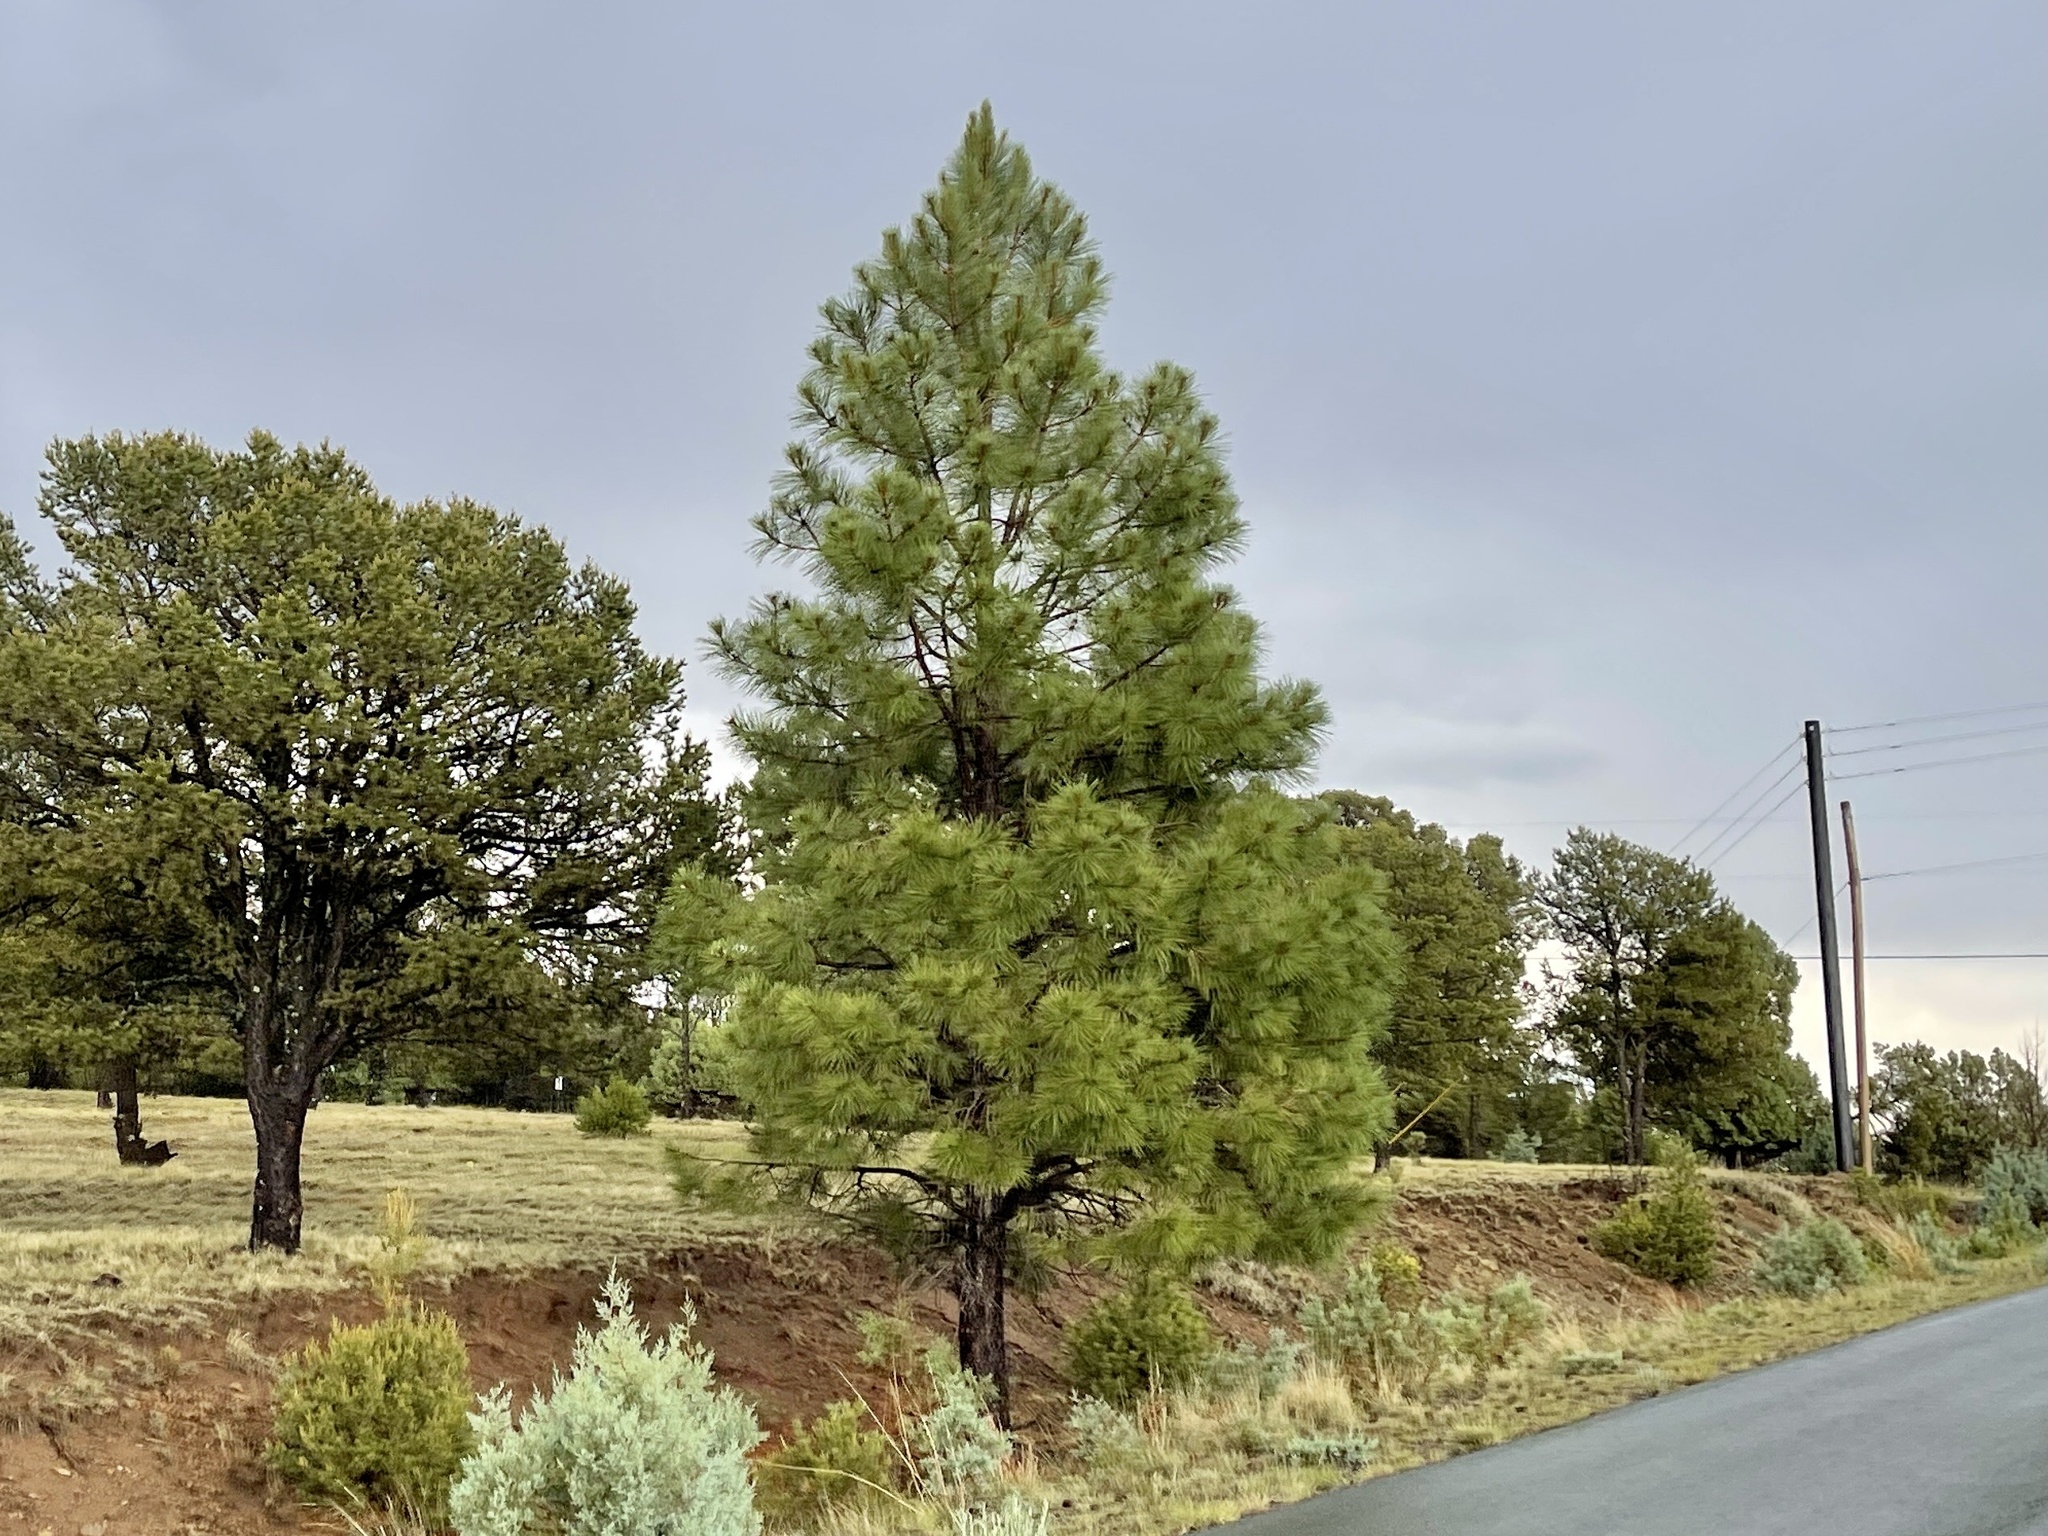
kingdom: Plantae
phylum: Tracheophyta
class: Pinopsida
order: Pinales
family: Pinaceae
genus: Pinus
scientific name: Pinus ponderosa
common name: Western yellow-pine
